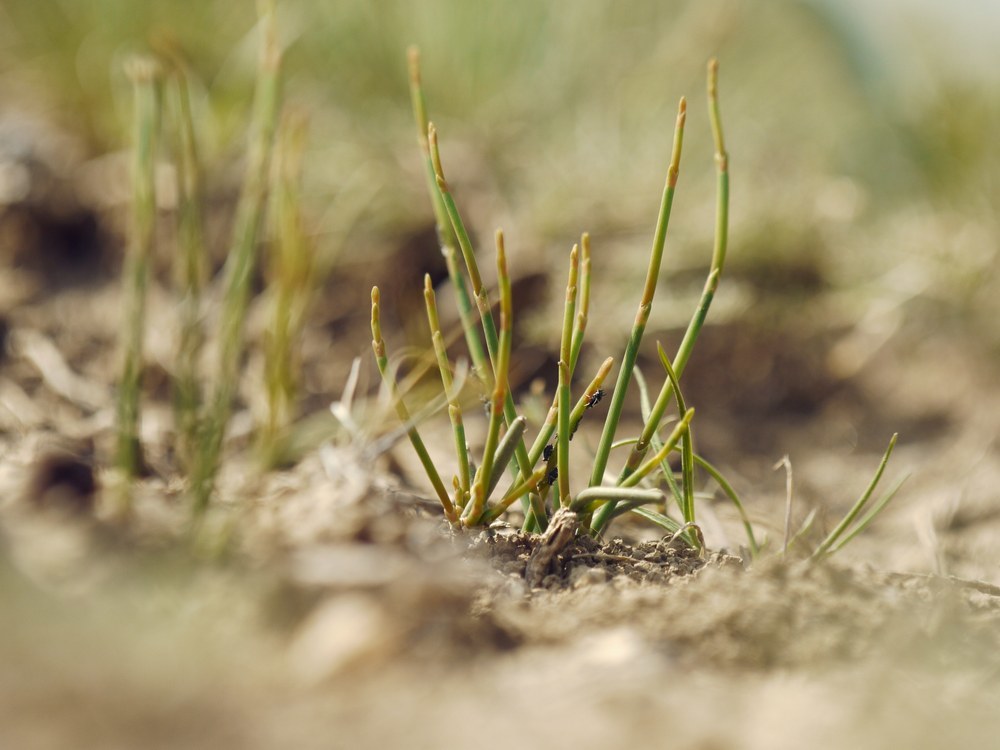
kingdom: Plantae
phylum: Tracheophyta
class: Gnetopsida
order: Ephedrales
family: Ephedraceae
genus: Ephedra
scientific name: Ephedra distachya
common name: Sea grape
